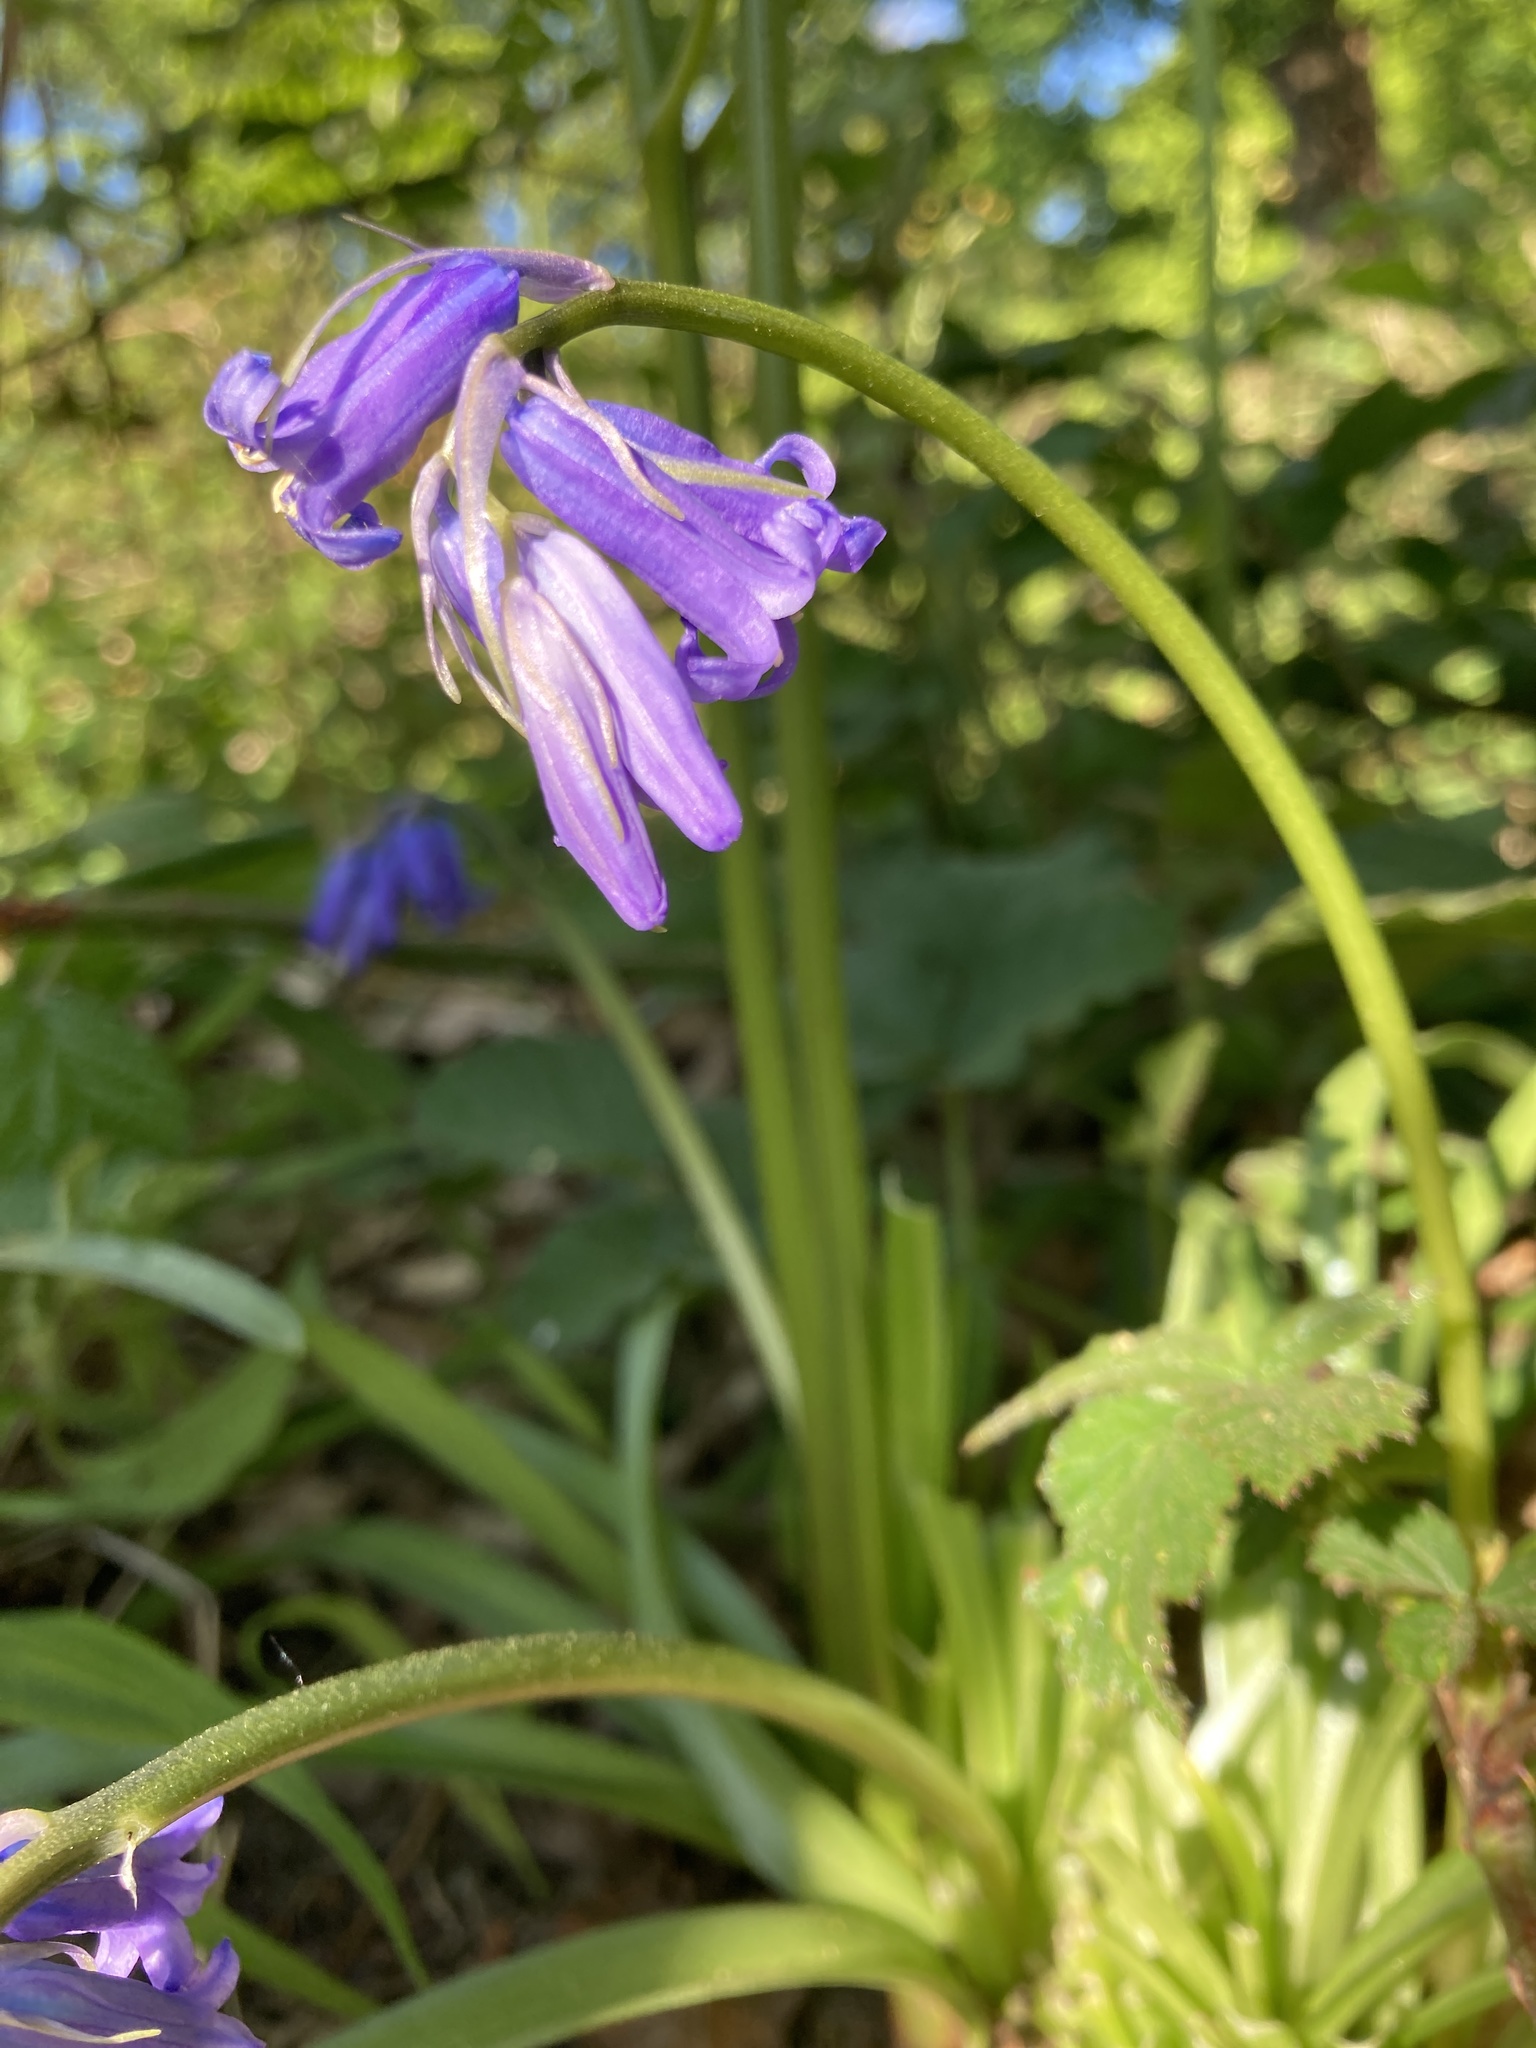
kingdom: Plantae
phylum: Tracheophyta
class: Liliopsida
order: Asparagales
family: Asparagaceae
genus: Hyacinthoides
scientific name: Hyacinthoides non-scripta
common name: Bluebell
